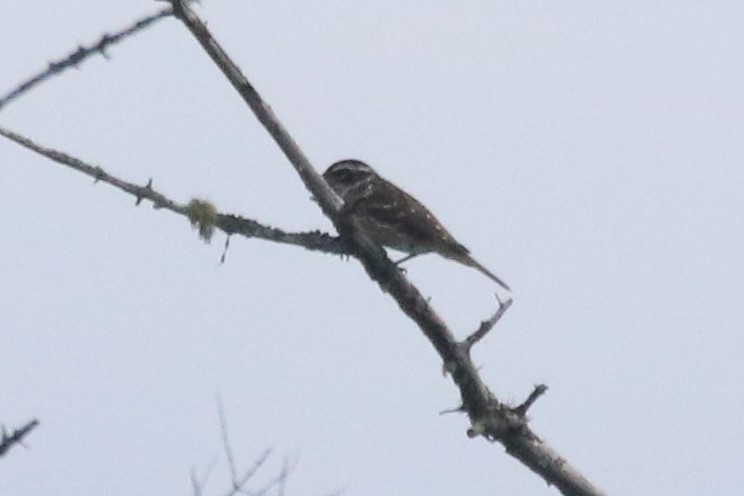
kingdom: Animalia
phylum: Chordata
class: Aves
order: Passeriformes
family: Cardinalidae
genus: Pheucticus
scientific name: Pheucticus ludovicianus
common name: Rose-breasted grosbeak
